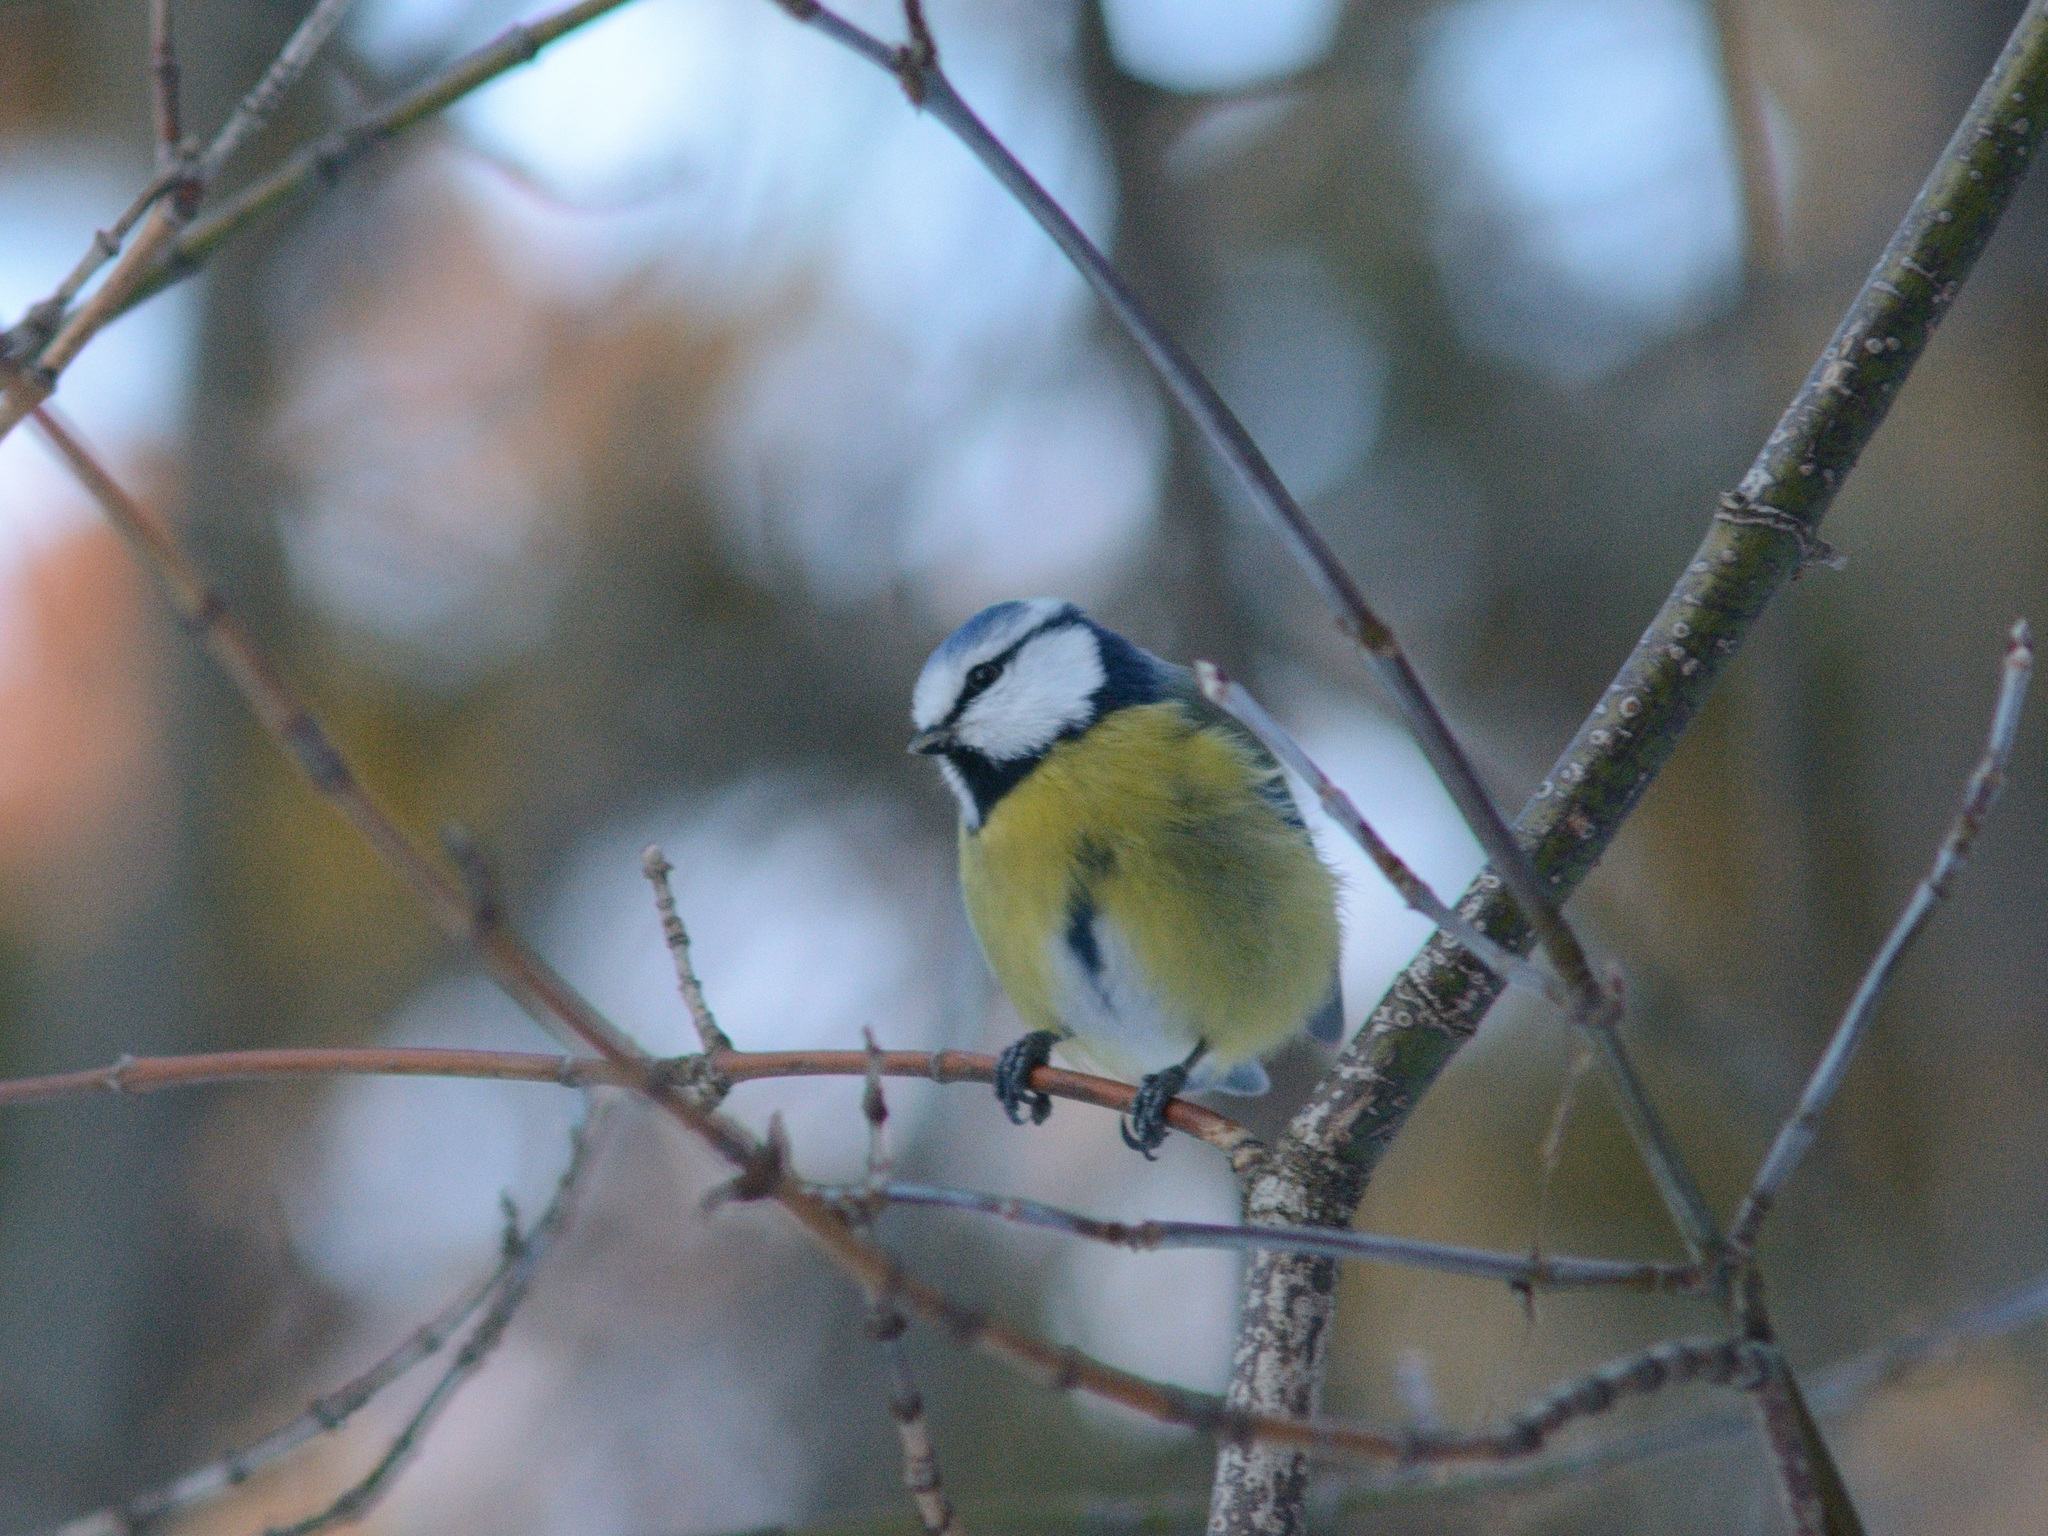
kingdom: Animalia
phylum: Chordata
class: Aves
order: Passeriformes
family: Paridae
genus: Cyanistes
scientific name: Cyanistes caeruleus
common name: Eurasian blue tit
